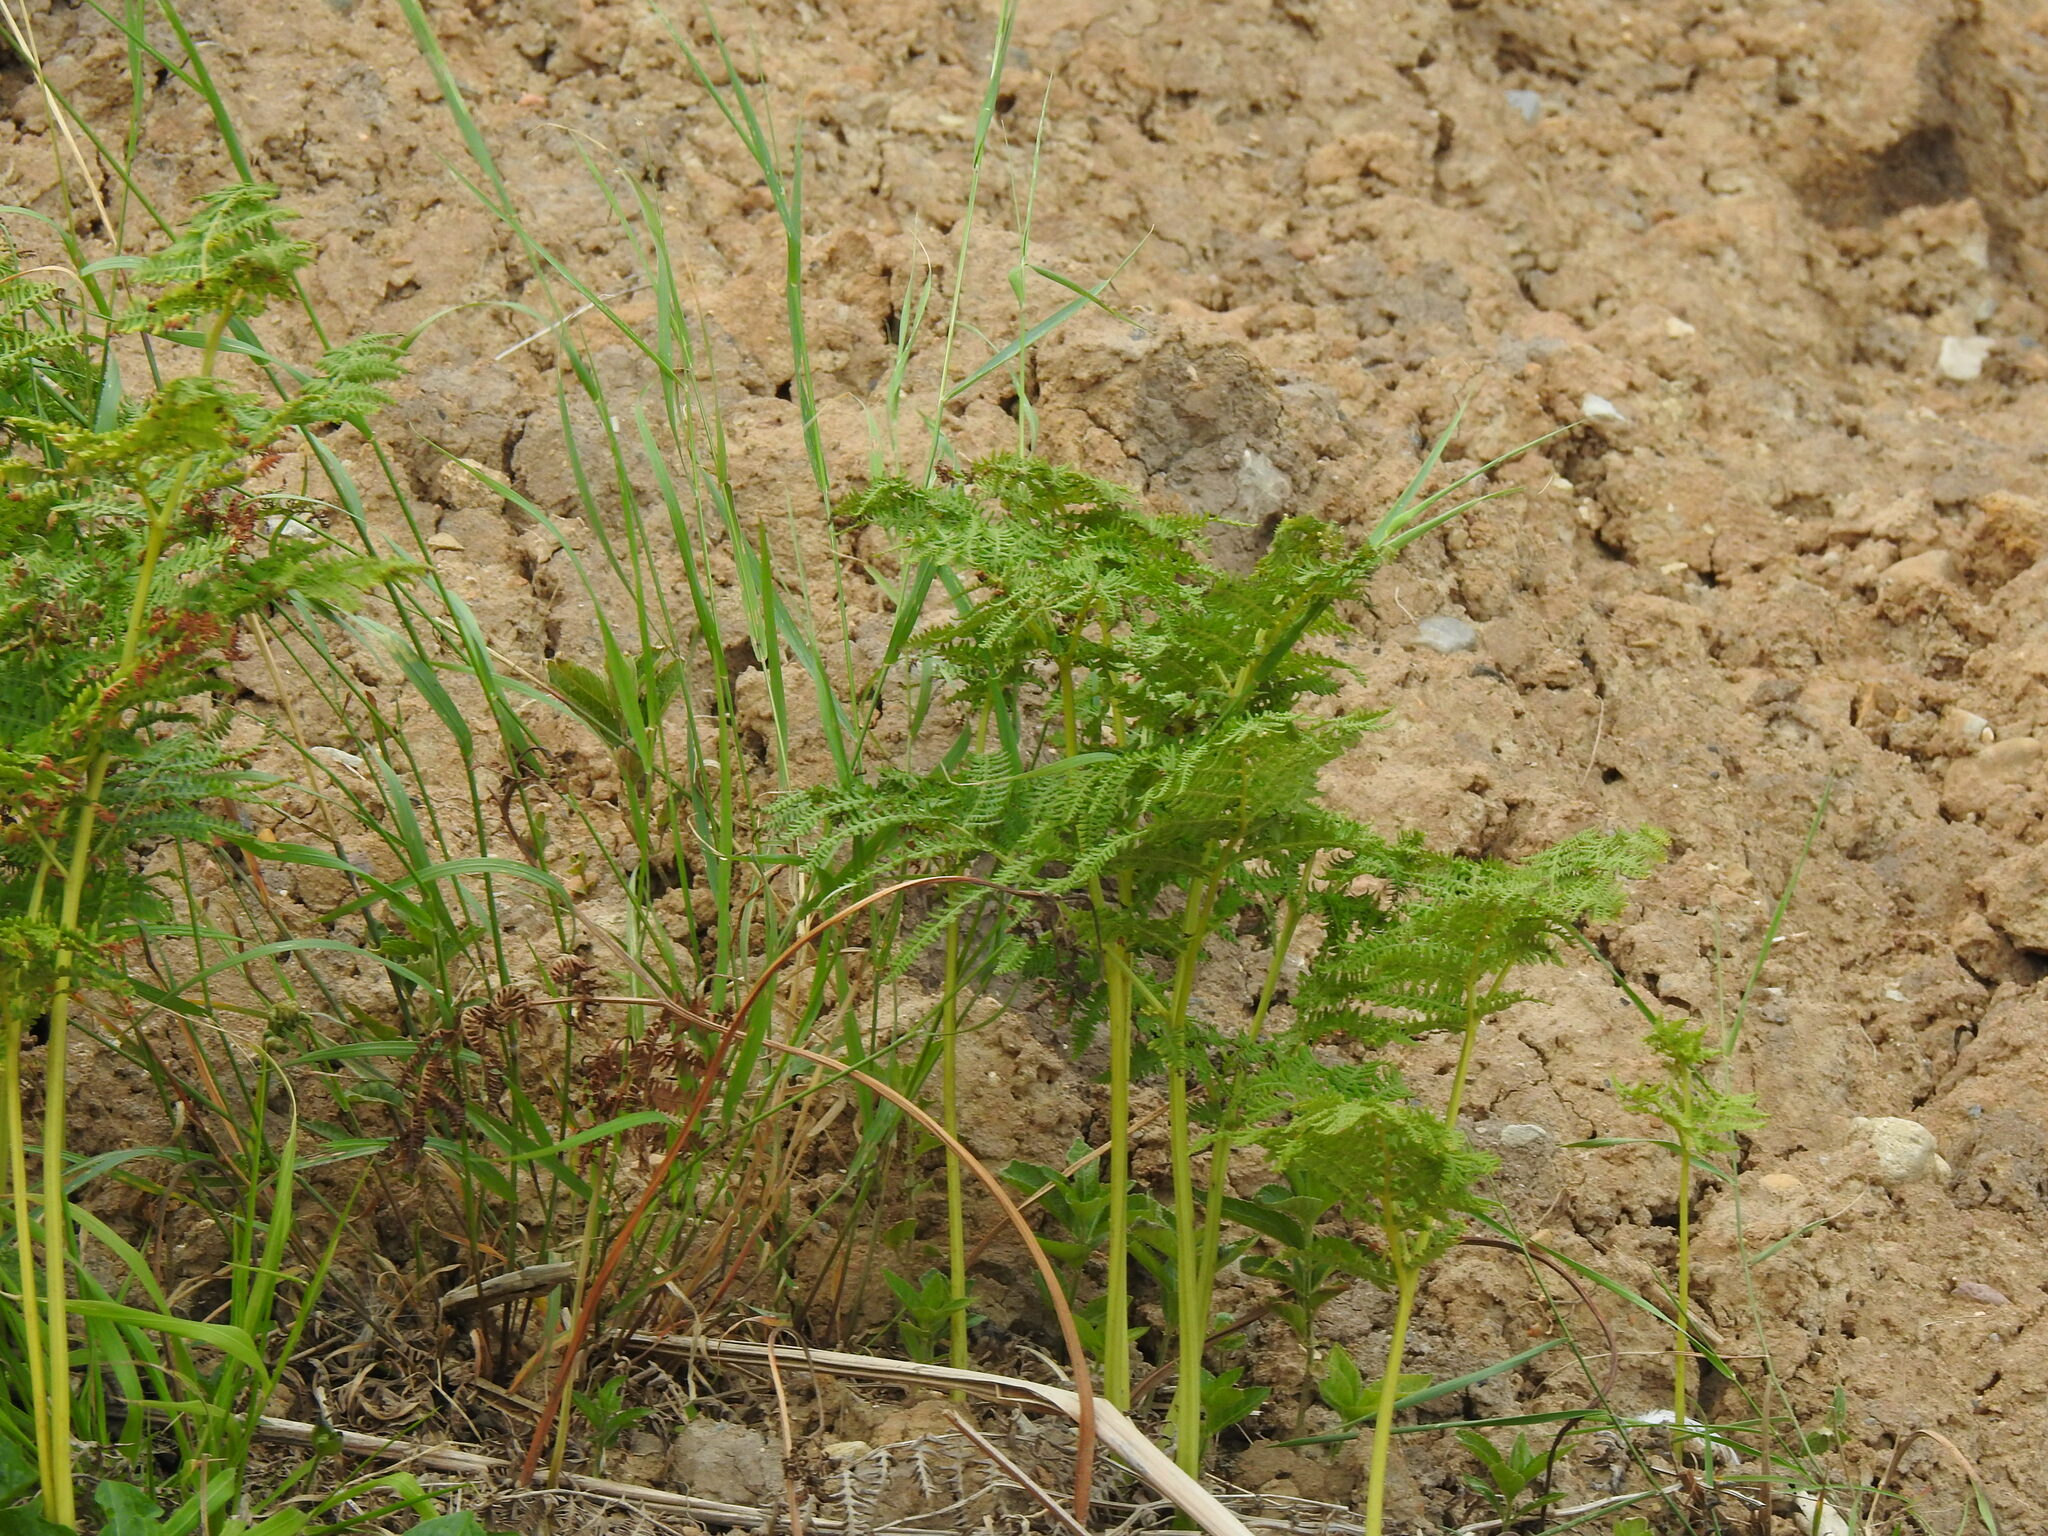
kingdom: Plantae
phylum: Tracheophyta
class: Polypodiopsida
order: Polypodiales
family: Dennstaedtiaceae
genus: Pteridium
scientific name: Pteridium aquilinum
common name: Bracken
